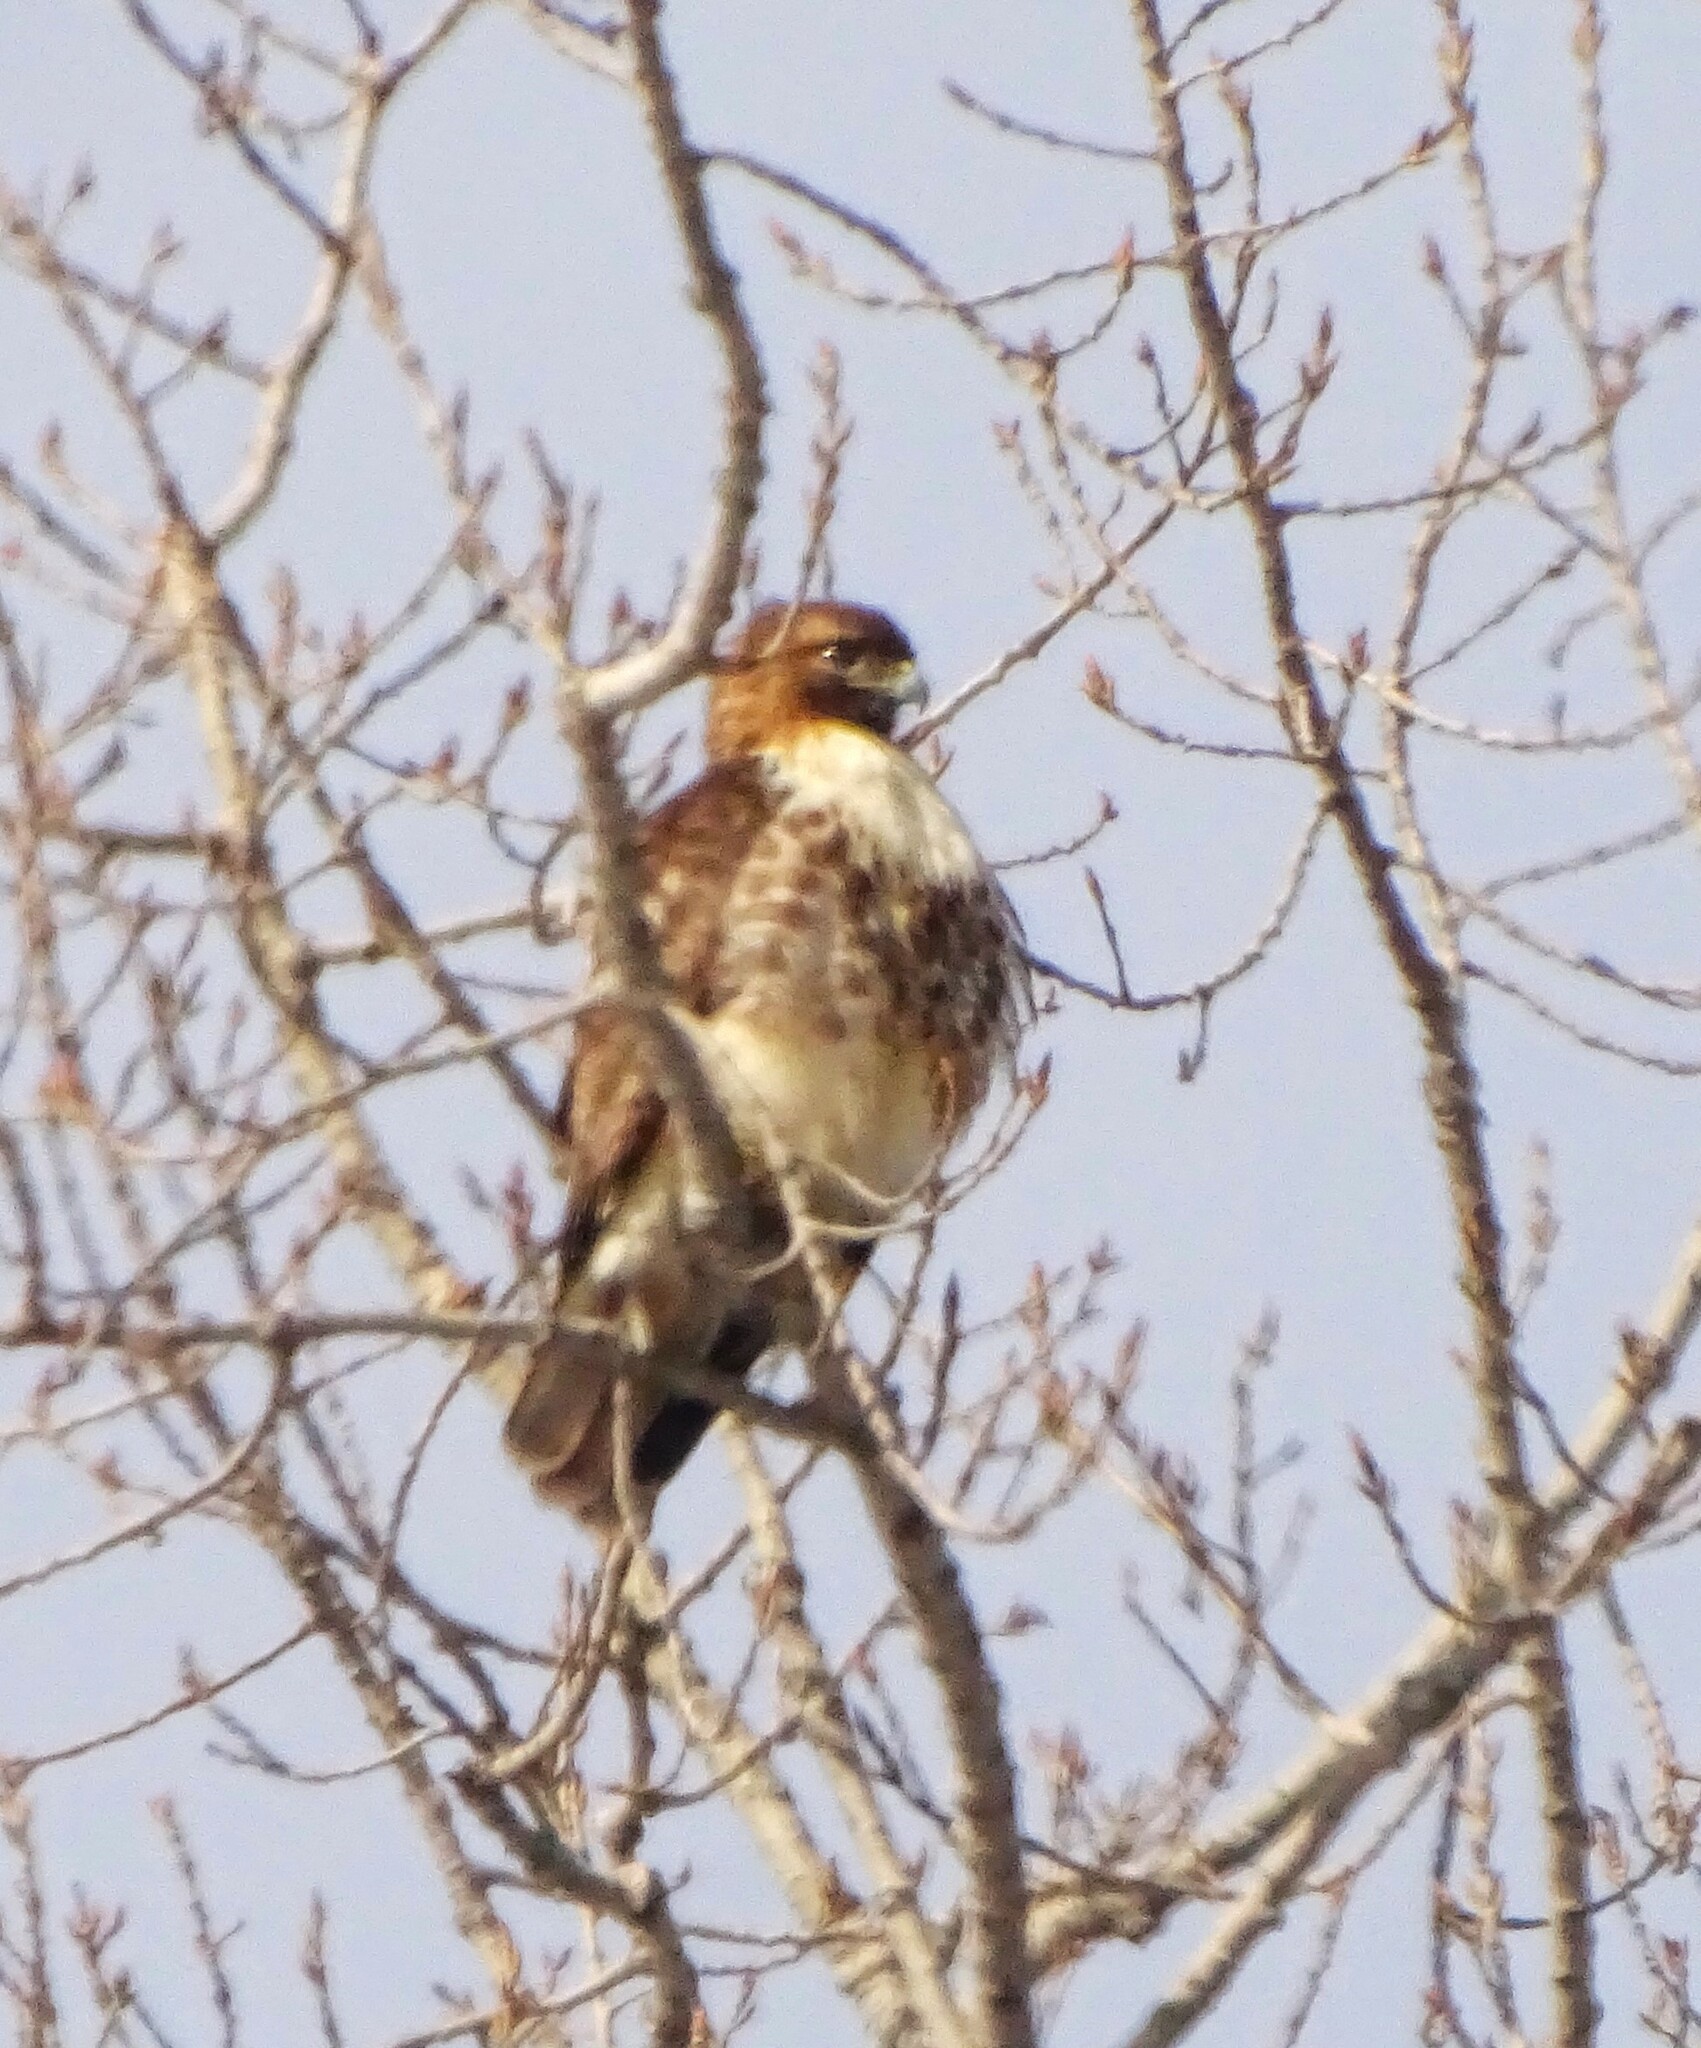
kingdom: Animalia
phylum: Chordata
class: Aves
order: Accipitriformes
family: Accipitridae
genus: Buteo
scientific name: Buteo jamaicensis
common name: Red-tailed hawk
